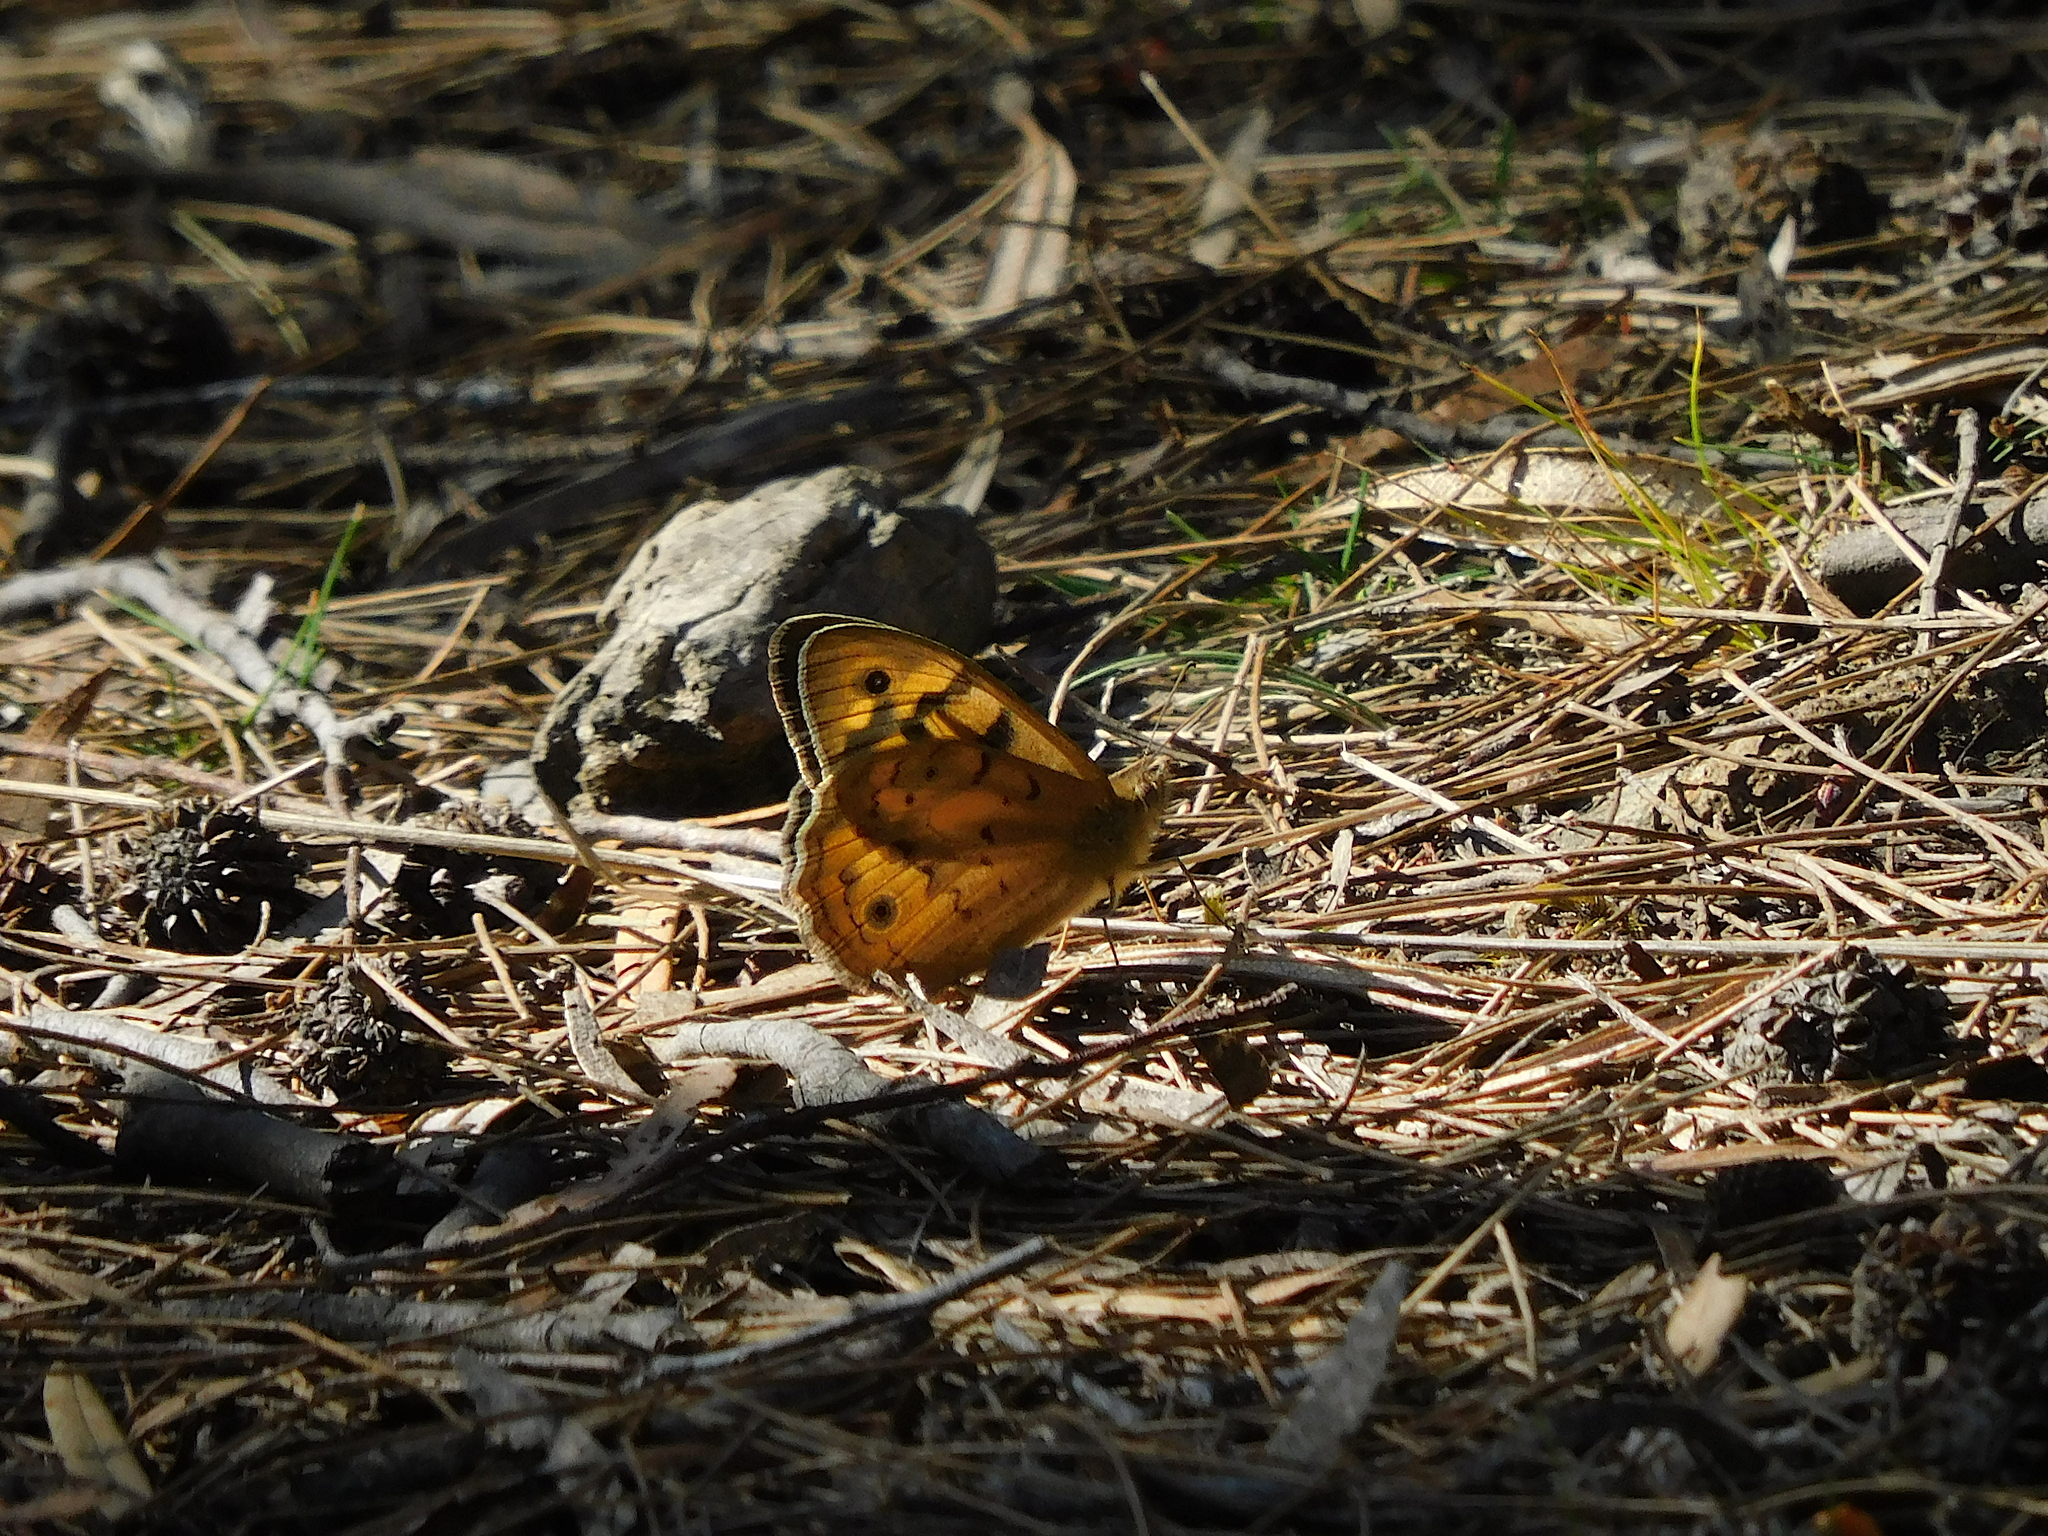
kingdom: Animalia
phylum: Arthropoda
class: Insecta
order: Lepidoptera
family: Nymphalidae
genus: Heteronympha
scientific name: Heteronympha merope
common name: Common brown
